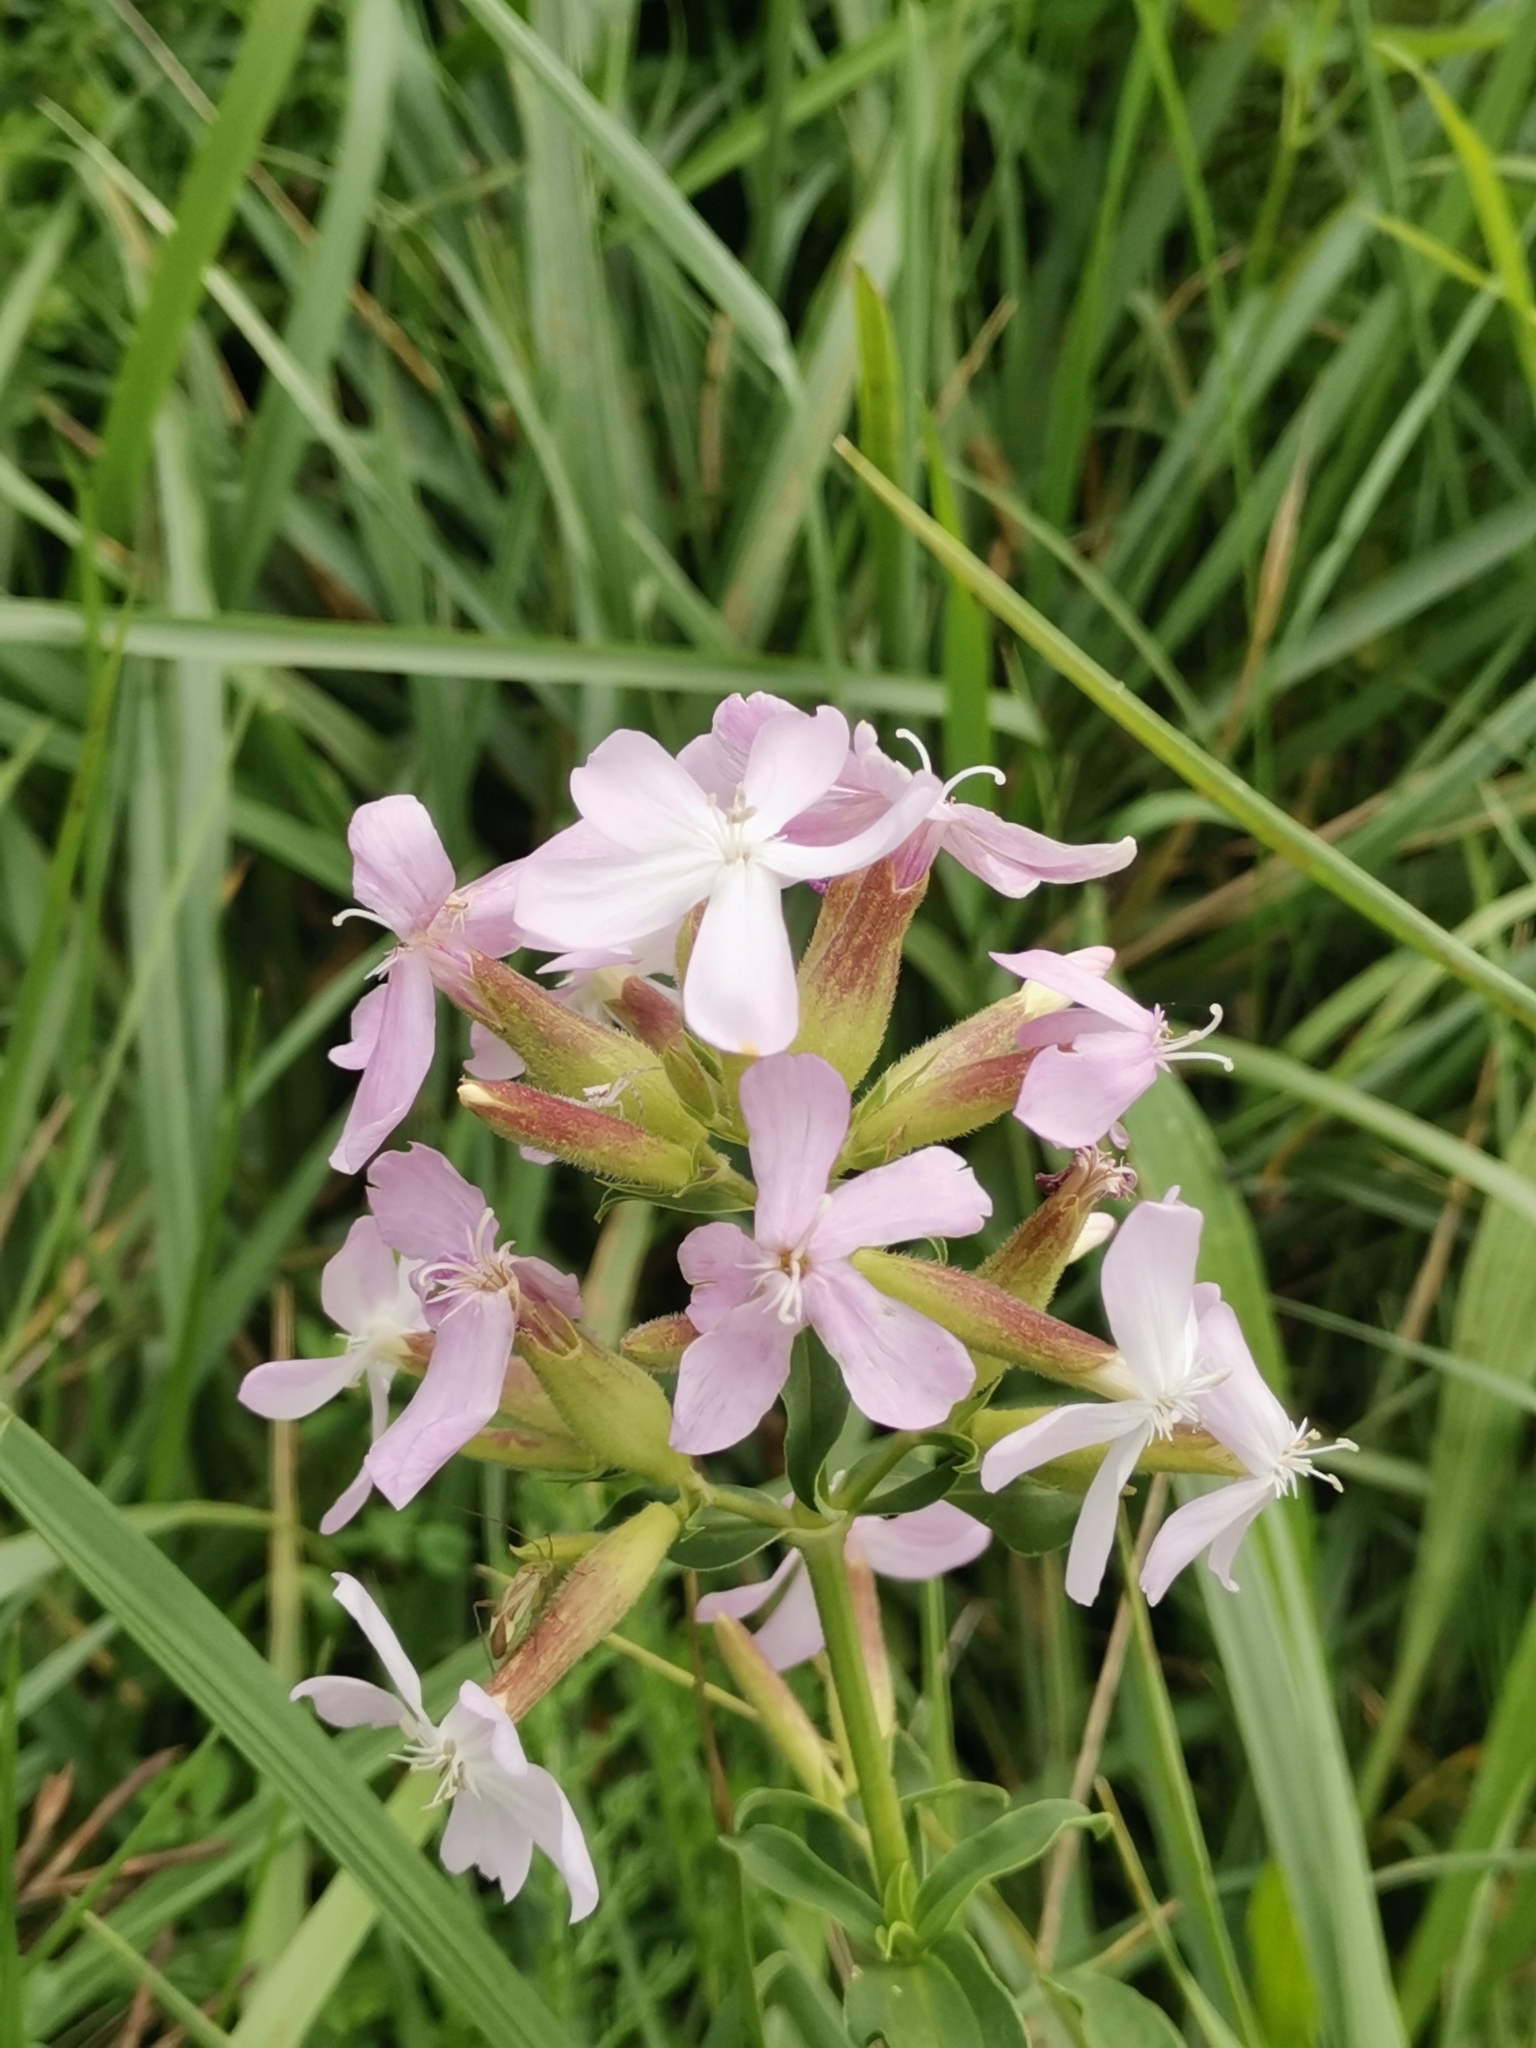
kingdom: Plantae
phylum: Tracheophyta
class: Magnoliopsida
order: Caryophyllales
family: Caryophyllaceae
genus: Saponaria
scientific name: Saponaria officinalis
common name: Soapwort
